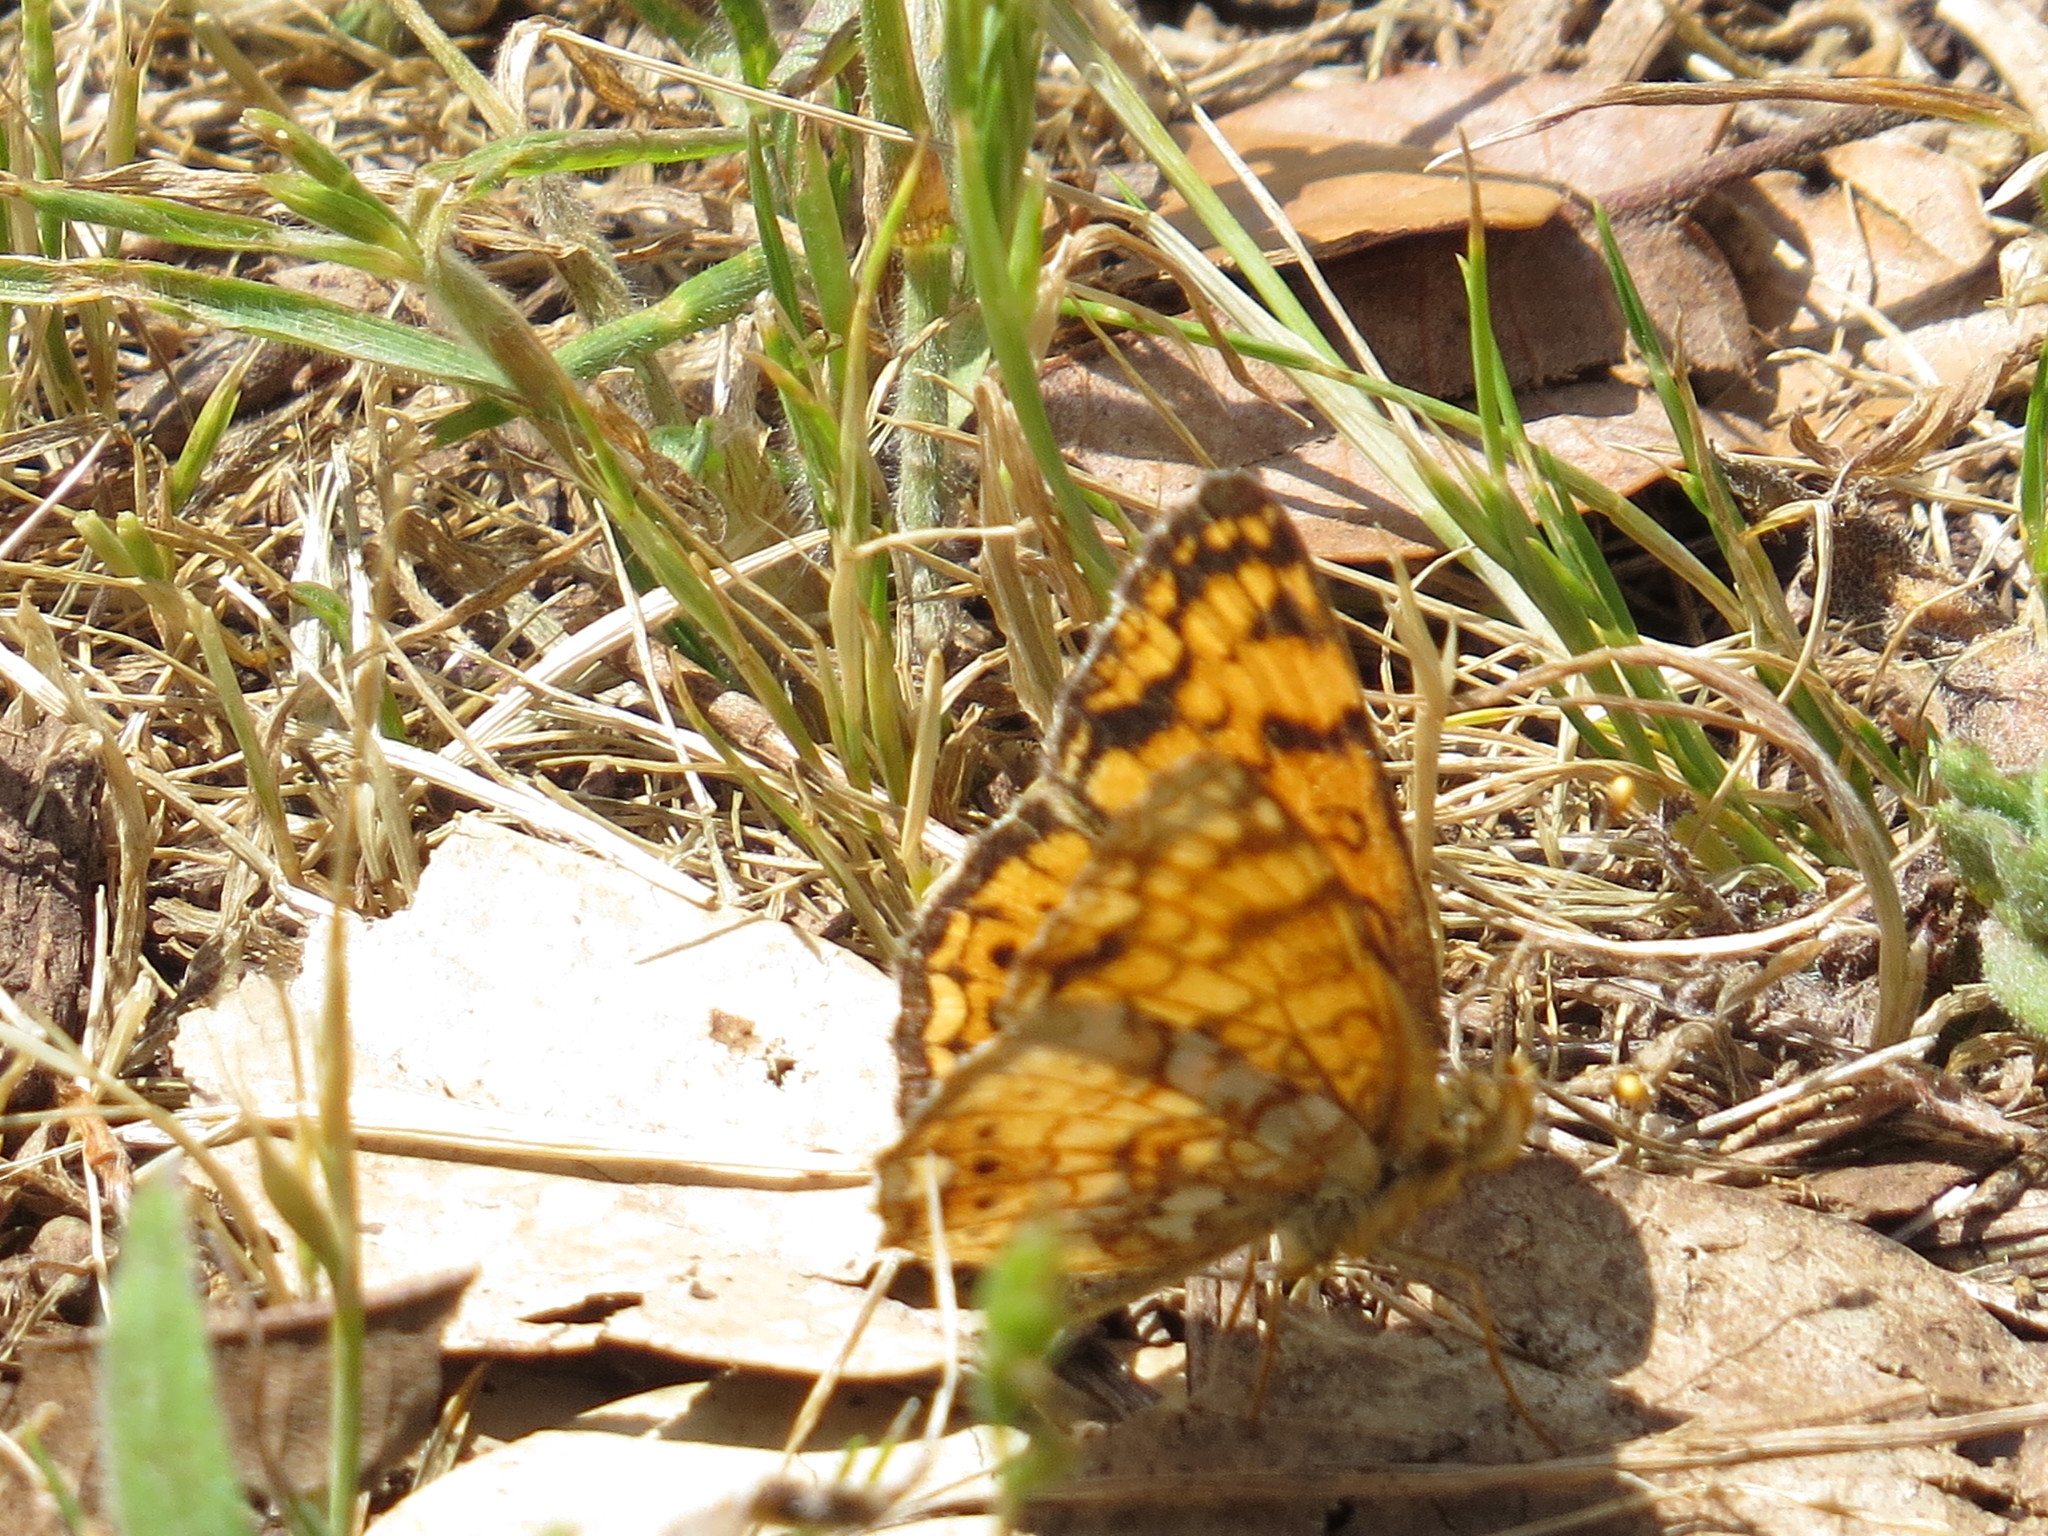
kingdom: Animalia
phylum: Arthropoda
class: Insecta
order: Lepidoptera
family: Nymphalidae
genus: Eresia
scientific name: Eresia aveyrona
